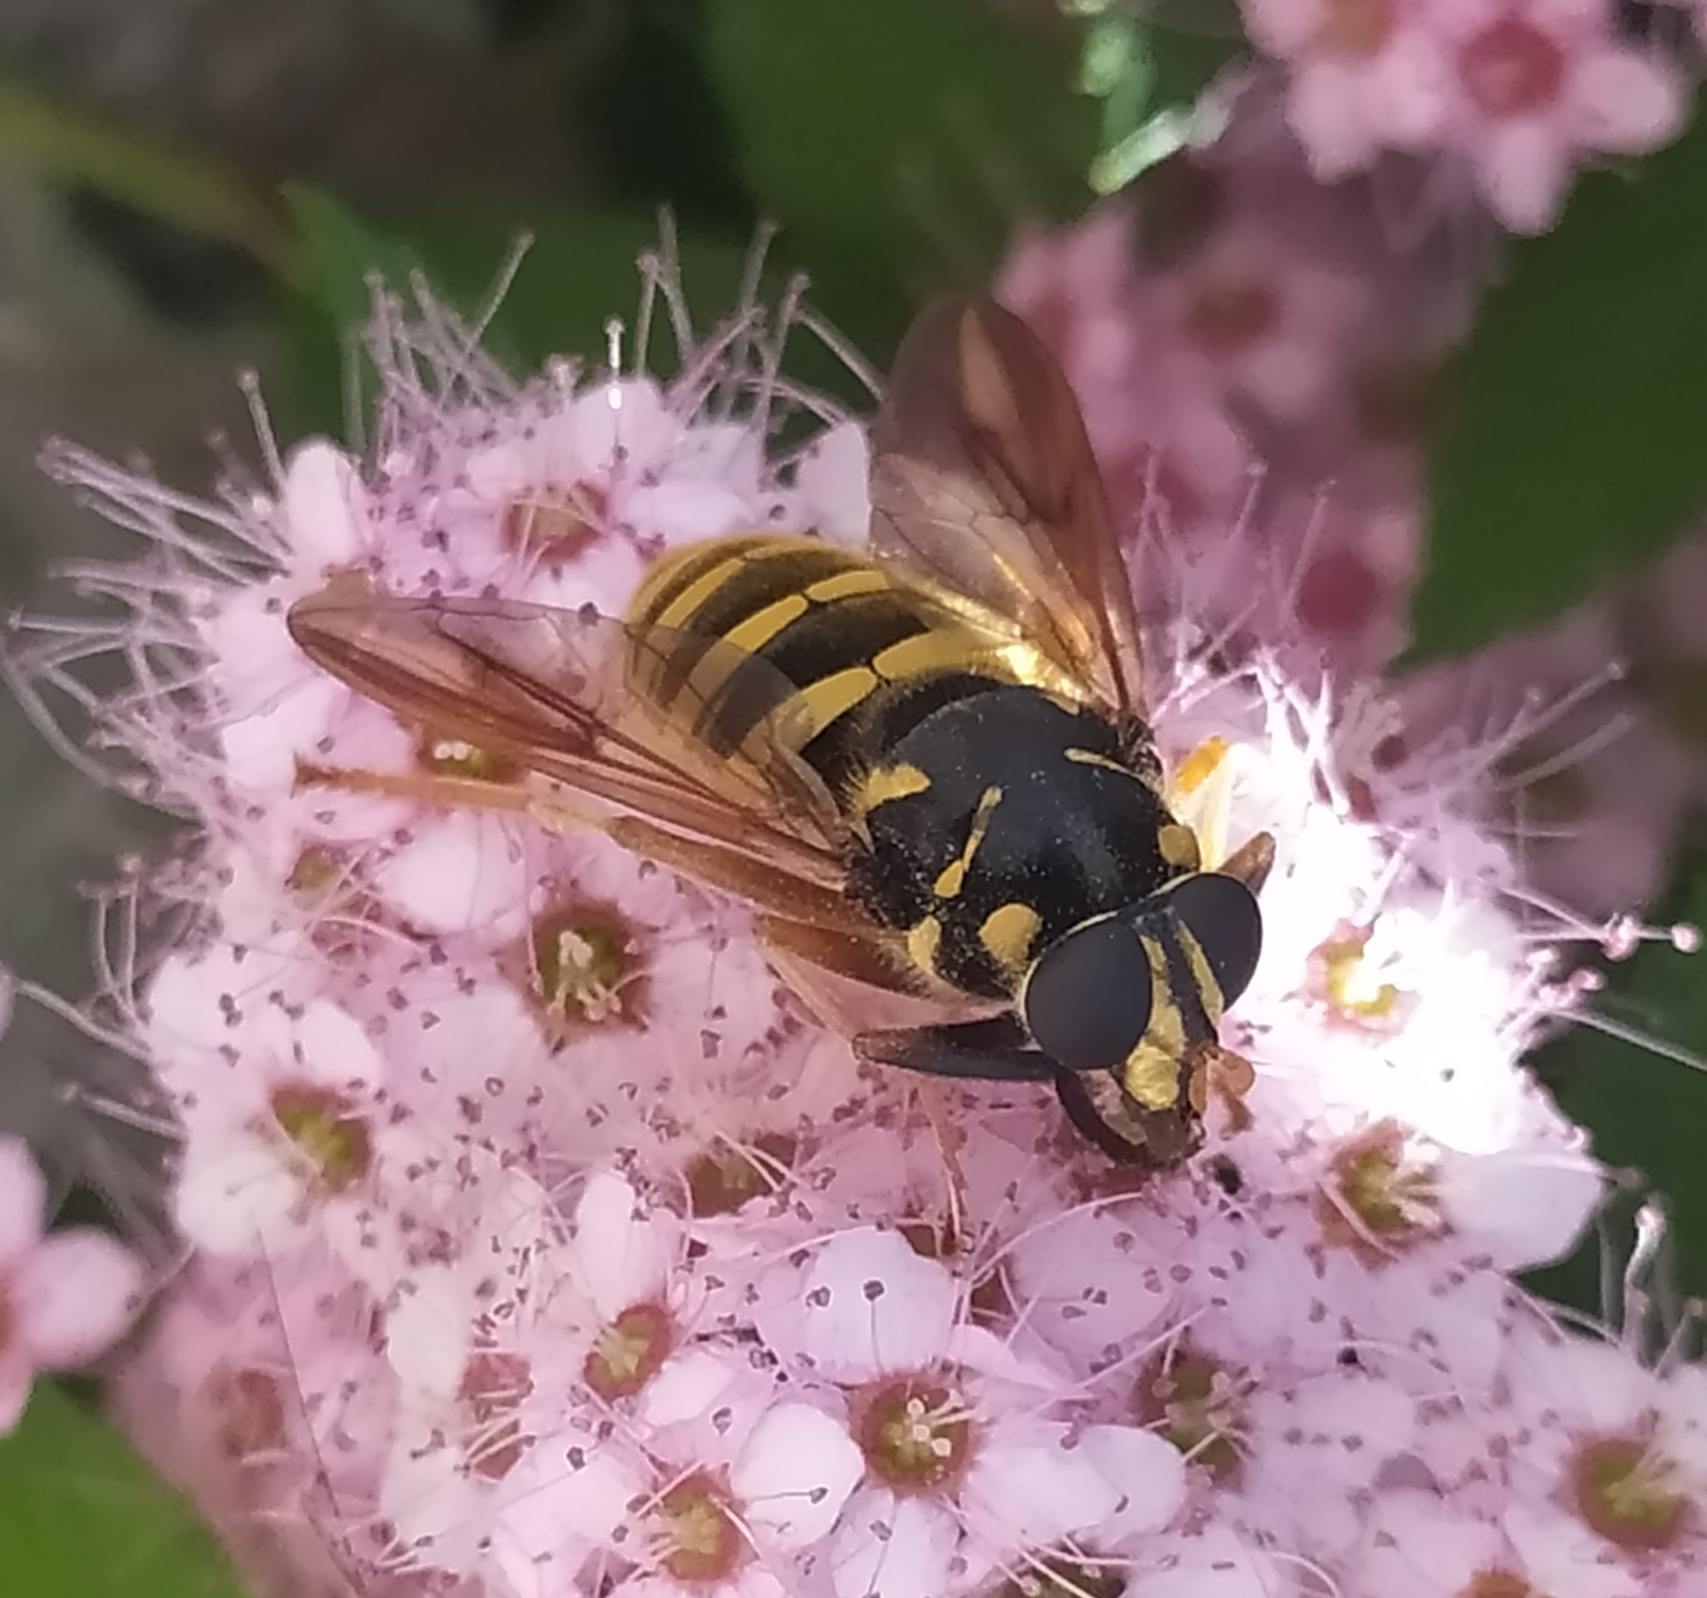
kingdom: Animalia
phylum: Arthropoda
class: Insecta
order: Diptera
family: Syrphidae
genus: Temnostoma
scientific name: Temnostoma sericomyiaeforme
